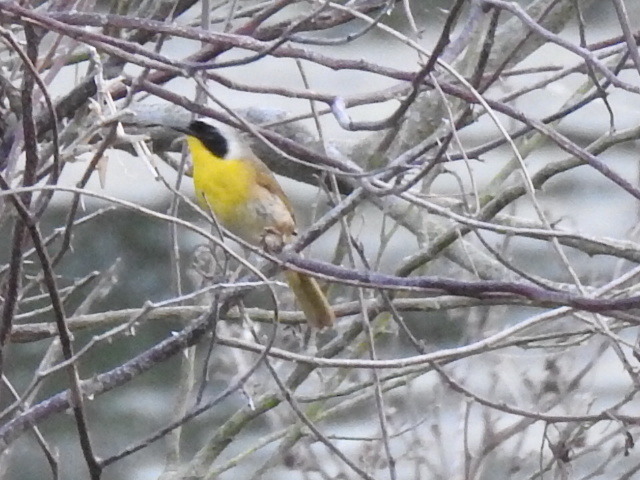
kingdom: Animalia
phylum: Chordata
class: Aves
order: Passeriformes
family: Parulidae
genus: Geothlypis
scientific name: Geothlypis trichas
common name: Common yellowthroat
